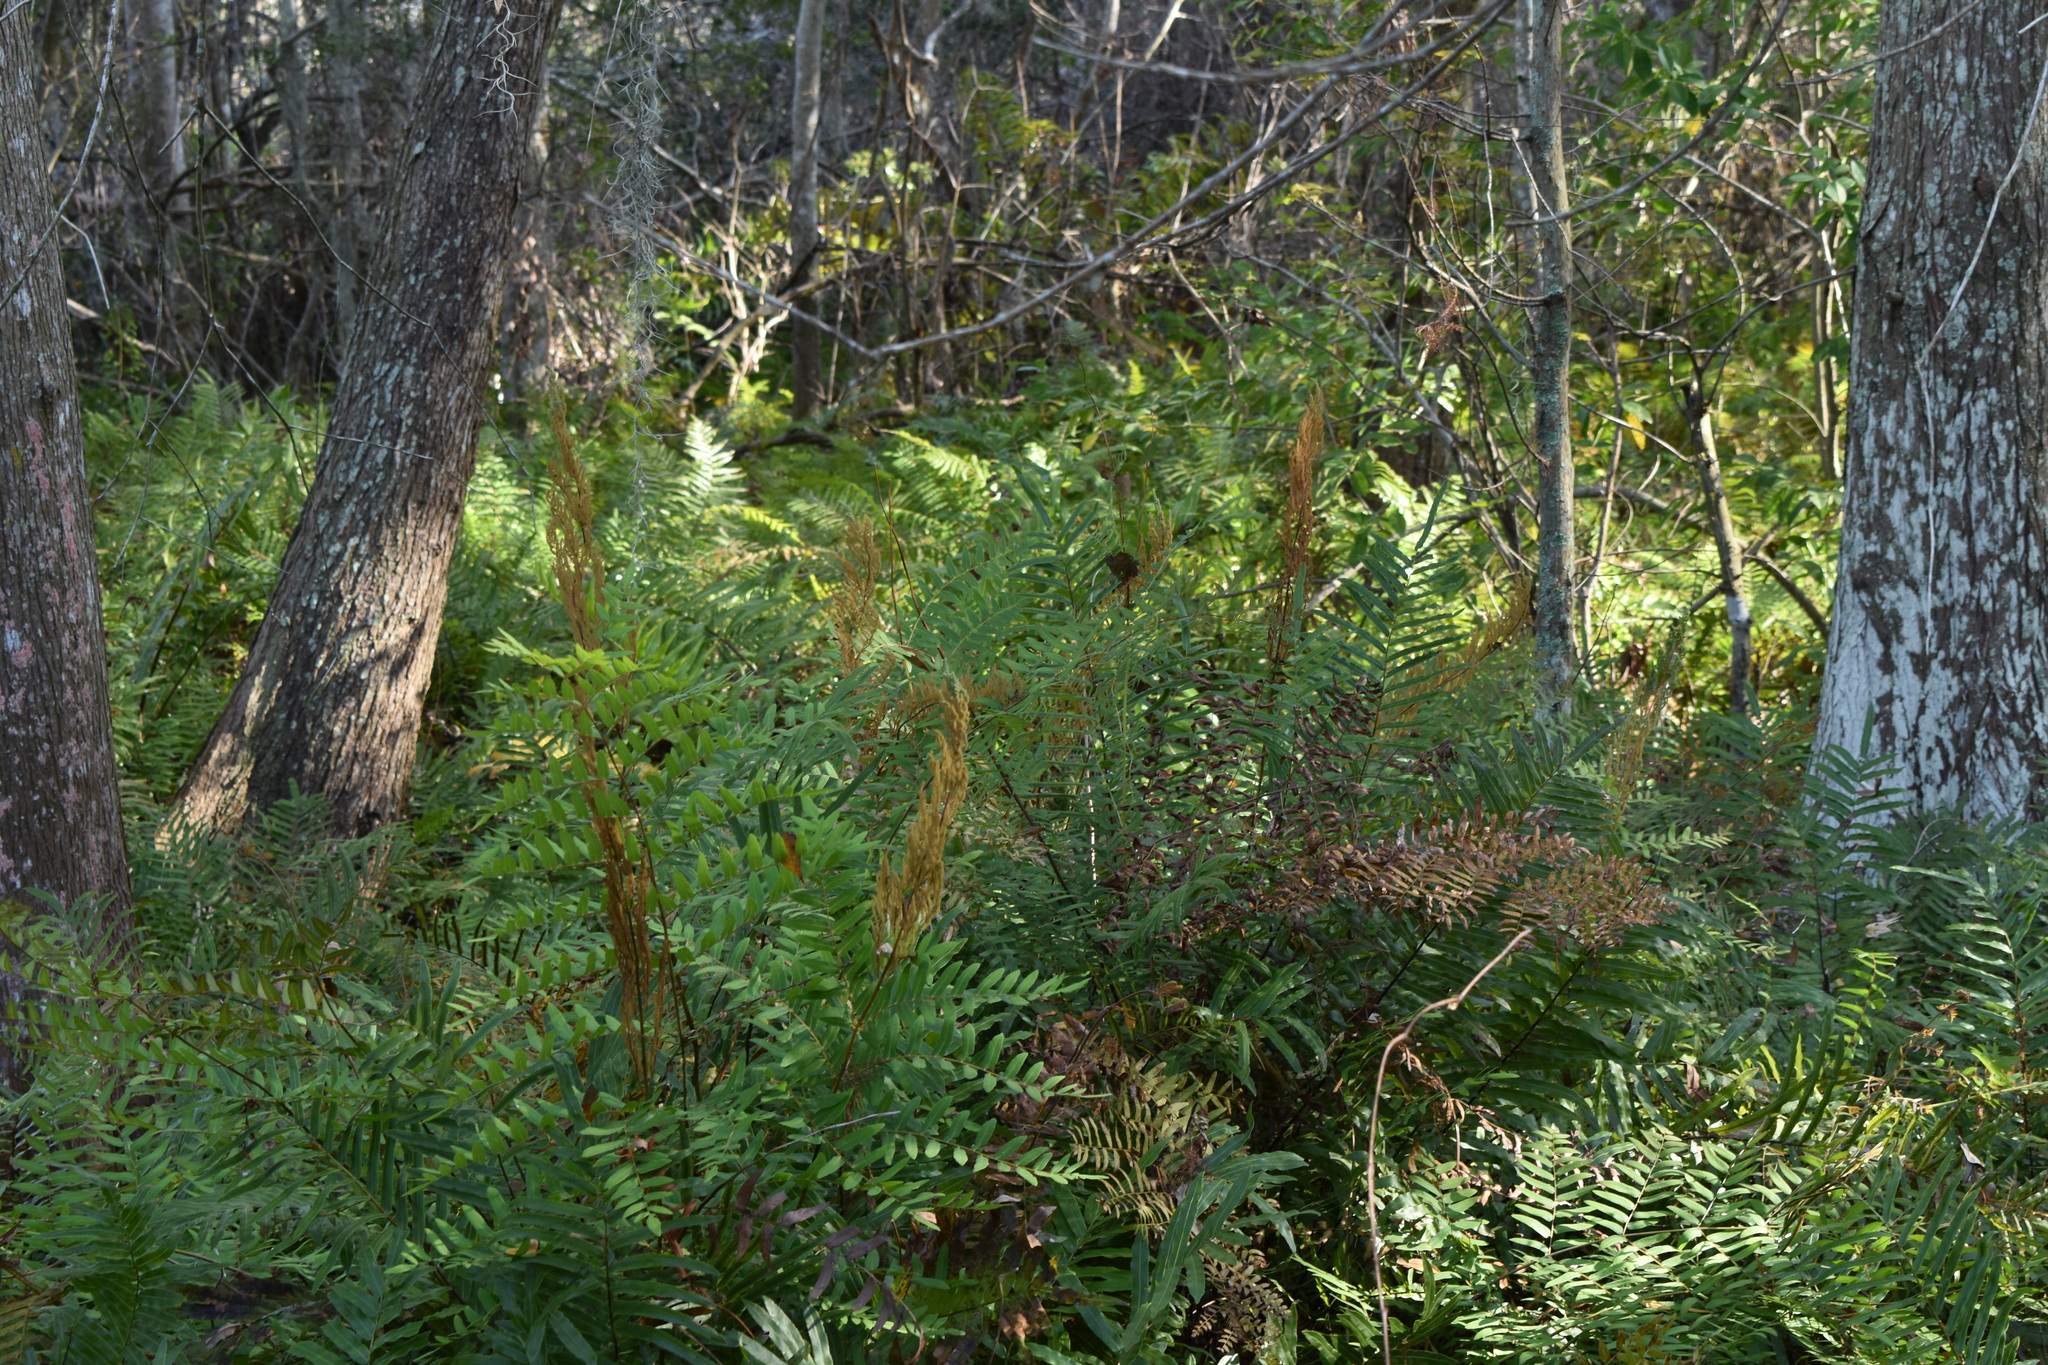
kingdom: Plantae
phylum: Tracheophyta
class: Polypodiopsida
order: Osmundales
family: Osmundaceae
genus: Osmunda
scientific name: Osmunda spectabilis
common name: American royal fern
